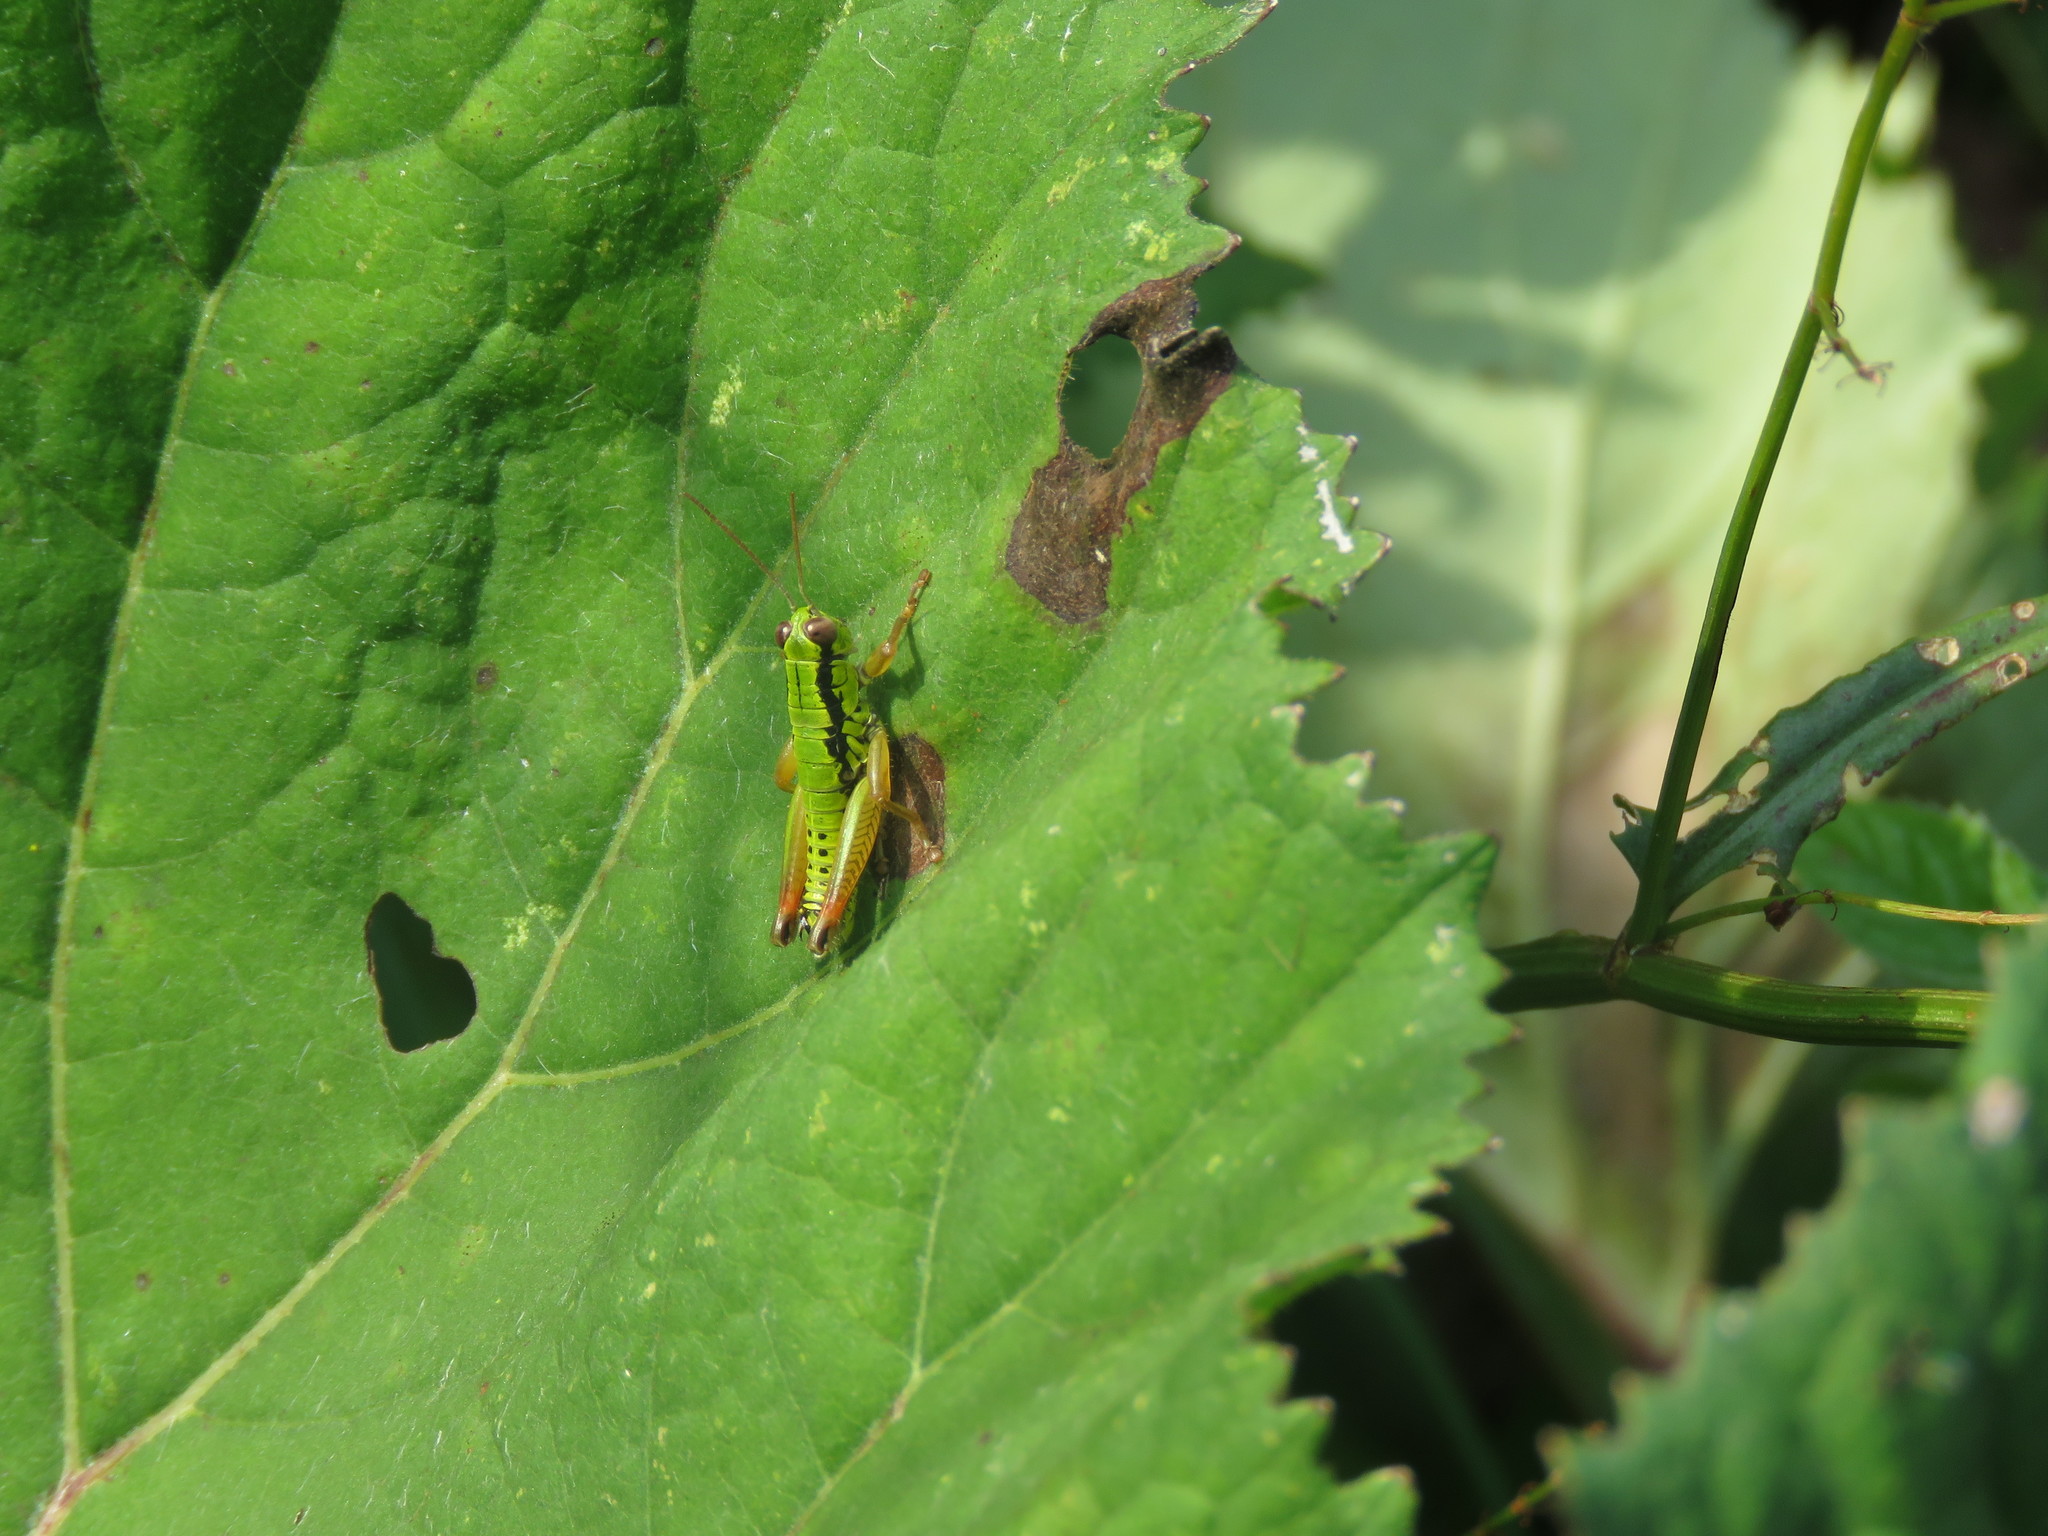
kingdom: Animalia
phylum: Arthropoda
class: Insecta
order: Orthoptera
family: Acrididae
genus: Micropodisma
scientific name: Micropodisma salamandra
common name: Foothill mountain grasshopper
